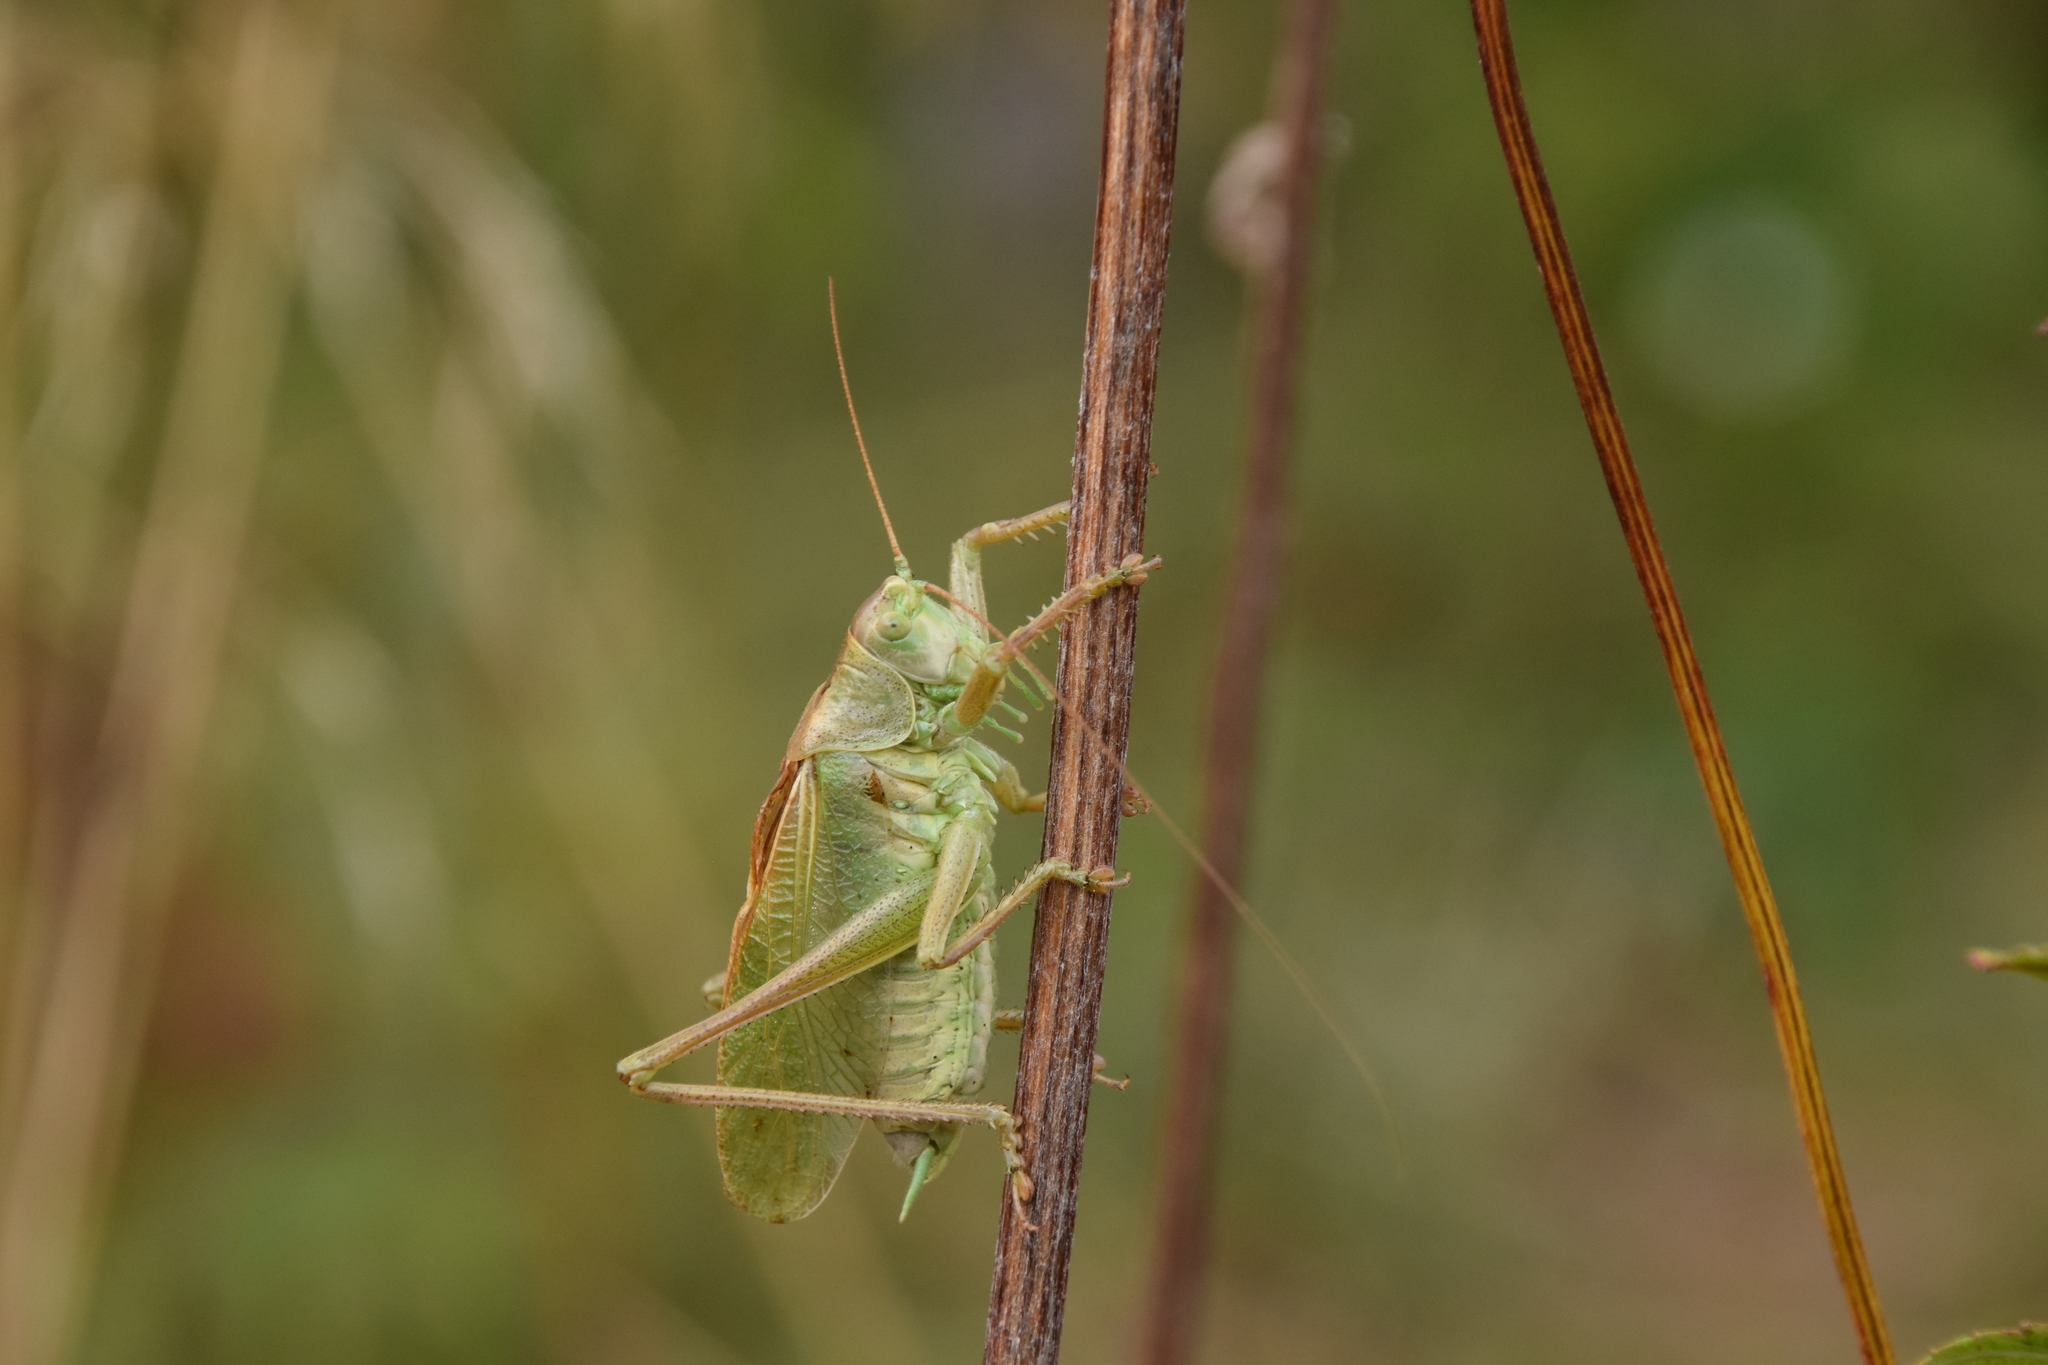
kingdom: Animalia
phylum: Arthropoda
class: Insecta
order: Orthoptera
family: Tettigoniidae
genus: Tettigonia
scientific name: Tettigonia cantans
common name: Upland green bush-cricket
